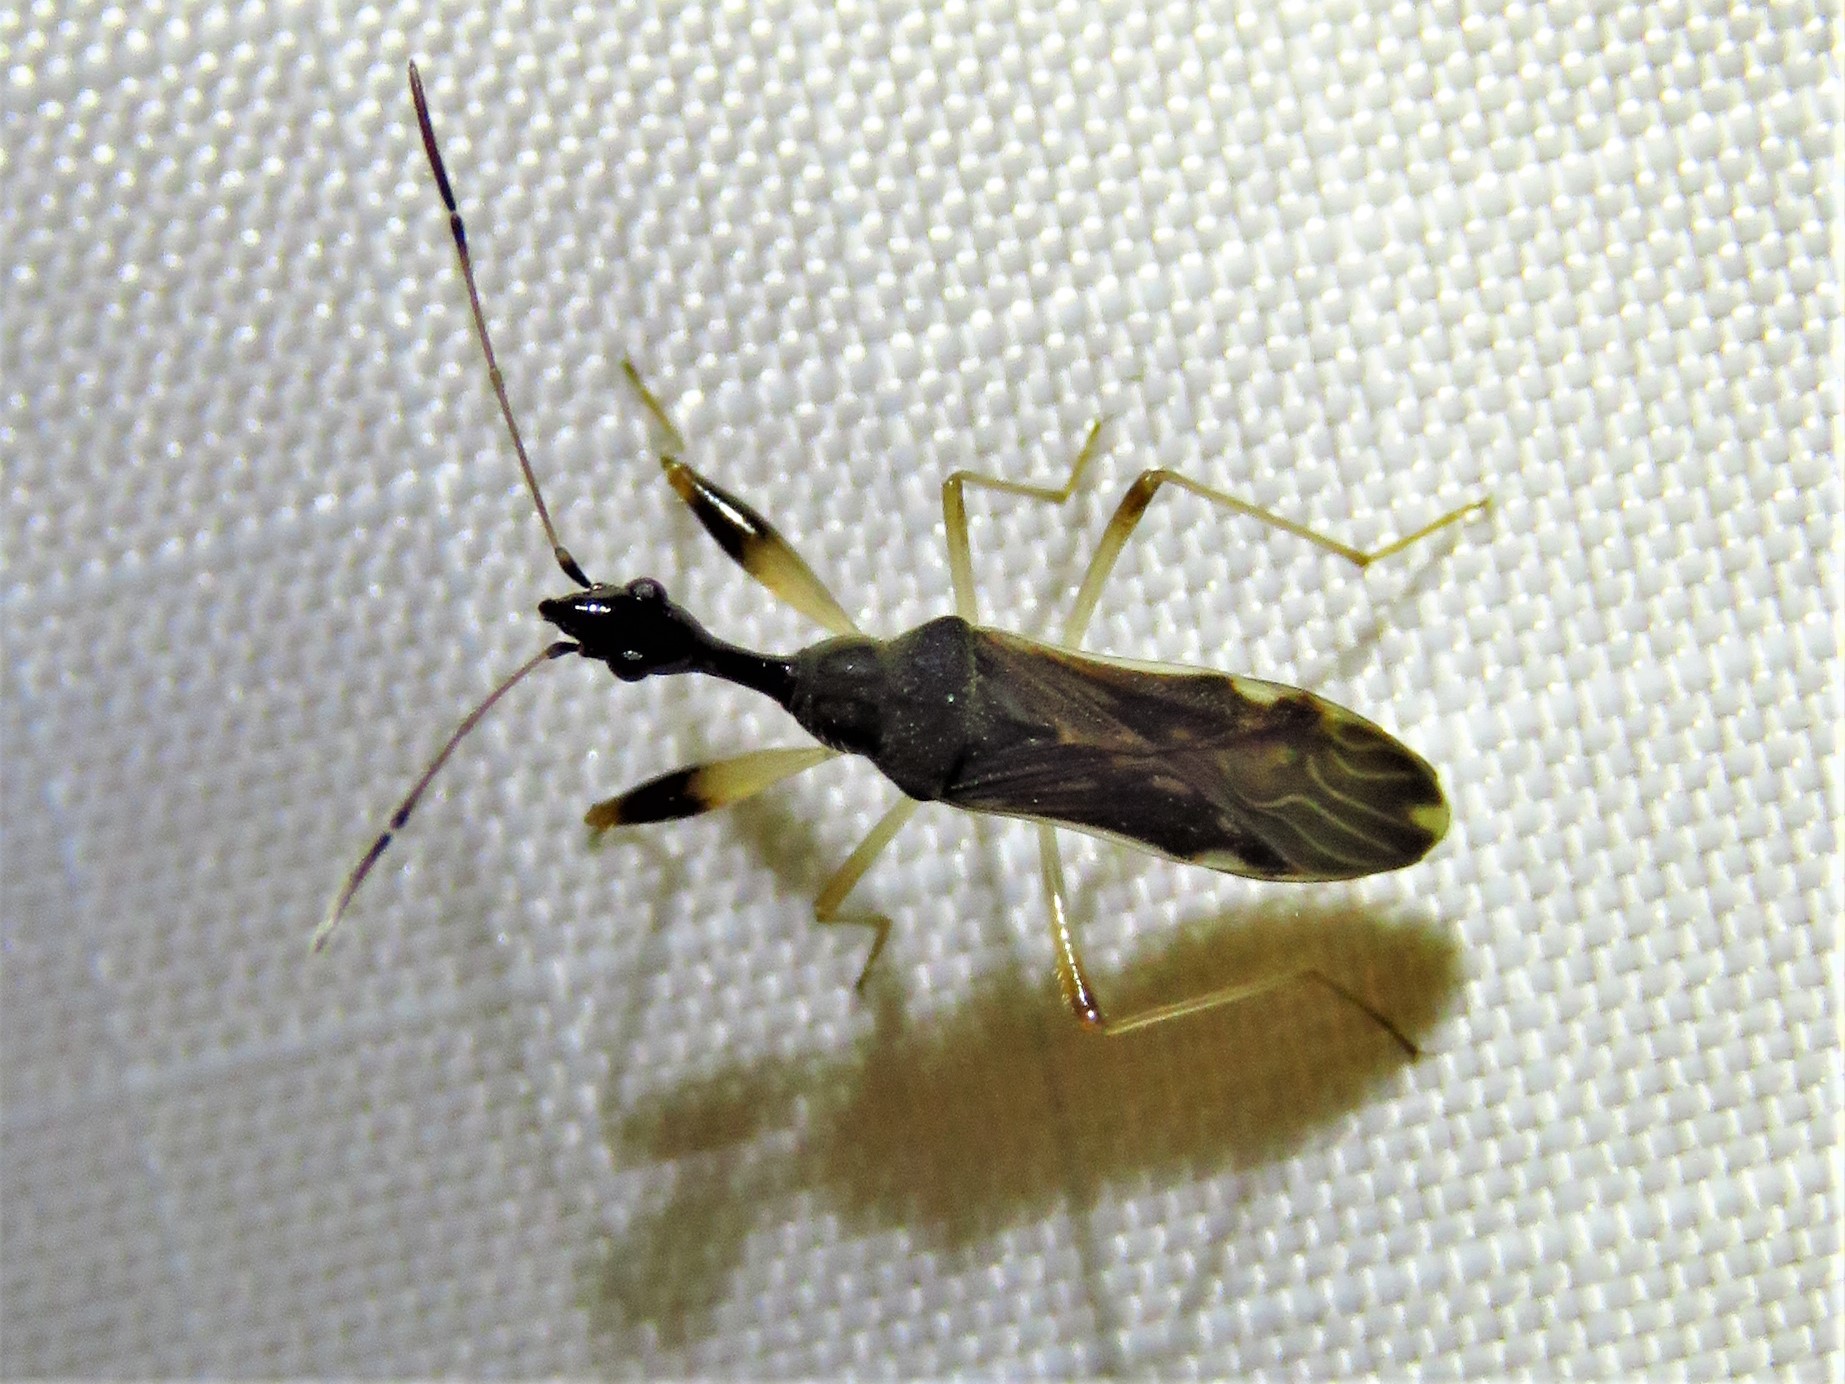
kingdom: Animalia
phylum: Arthropoda
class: Insecta
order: Hemiptera
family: Rhyparochromidae
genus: Myodocha
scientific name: Myodocha serripes
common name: Long-necked seed bug
